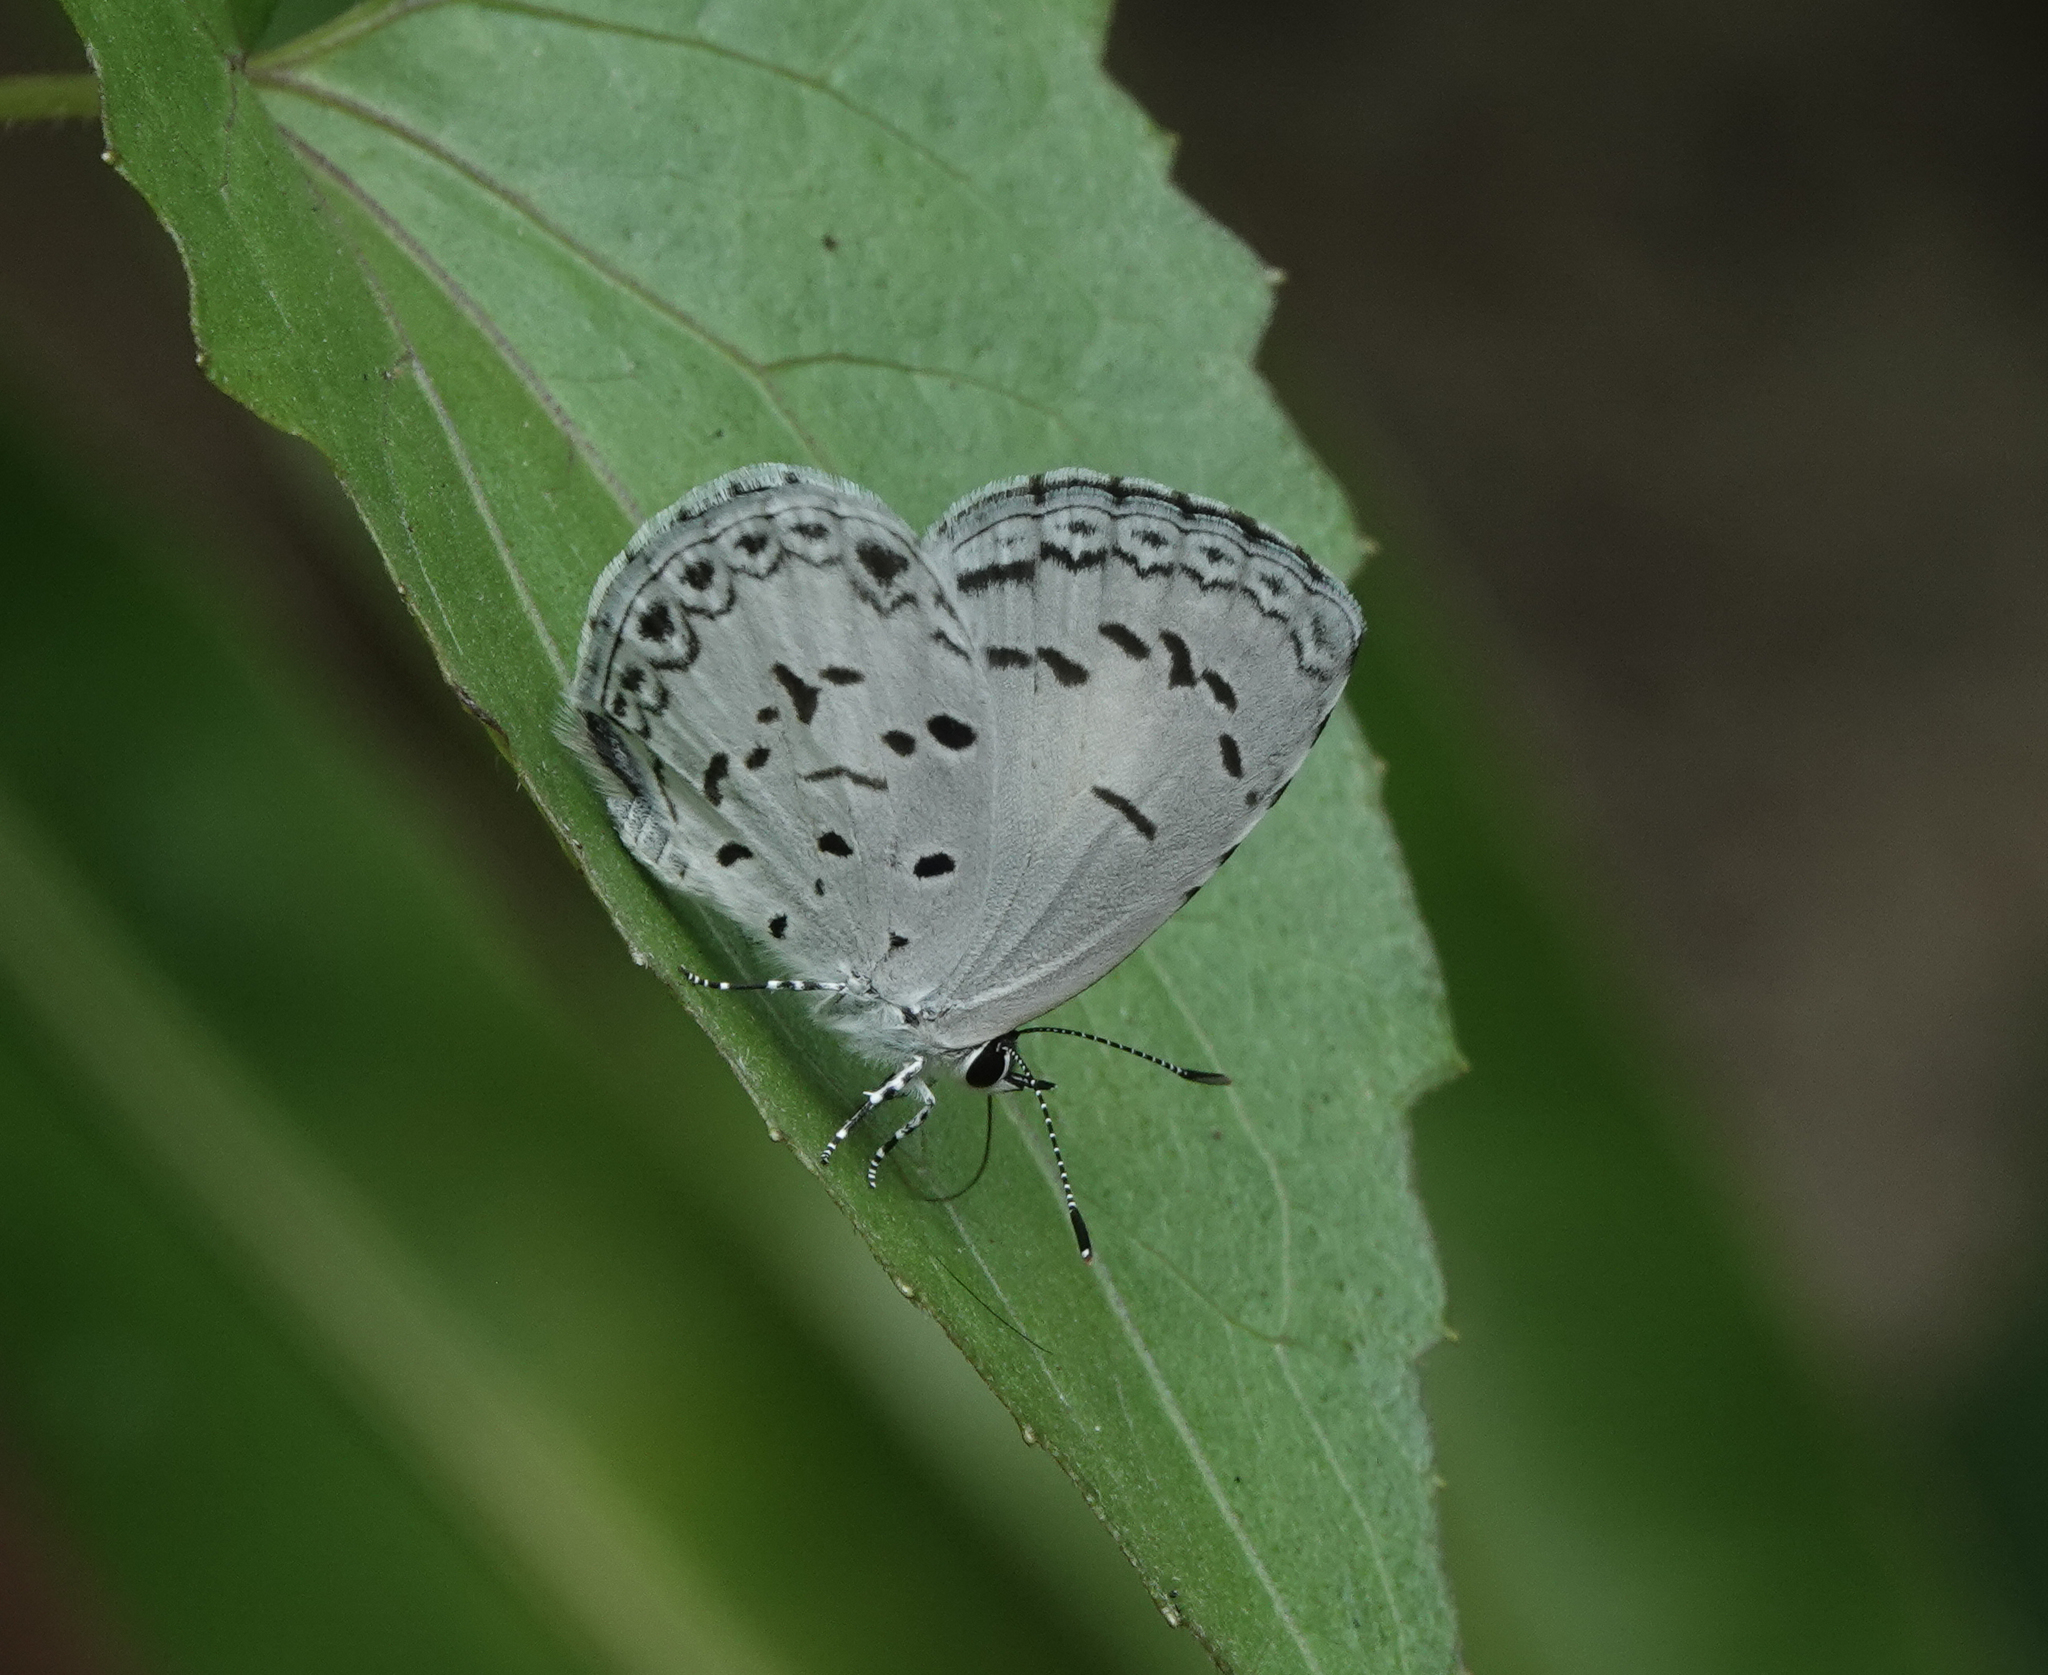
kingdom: Animalia
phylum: Arthropoda
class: Insecta
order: Lepidoptera
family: Lycaenidae
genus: Acytolepis
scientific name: Acytolepis puspa
